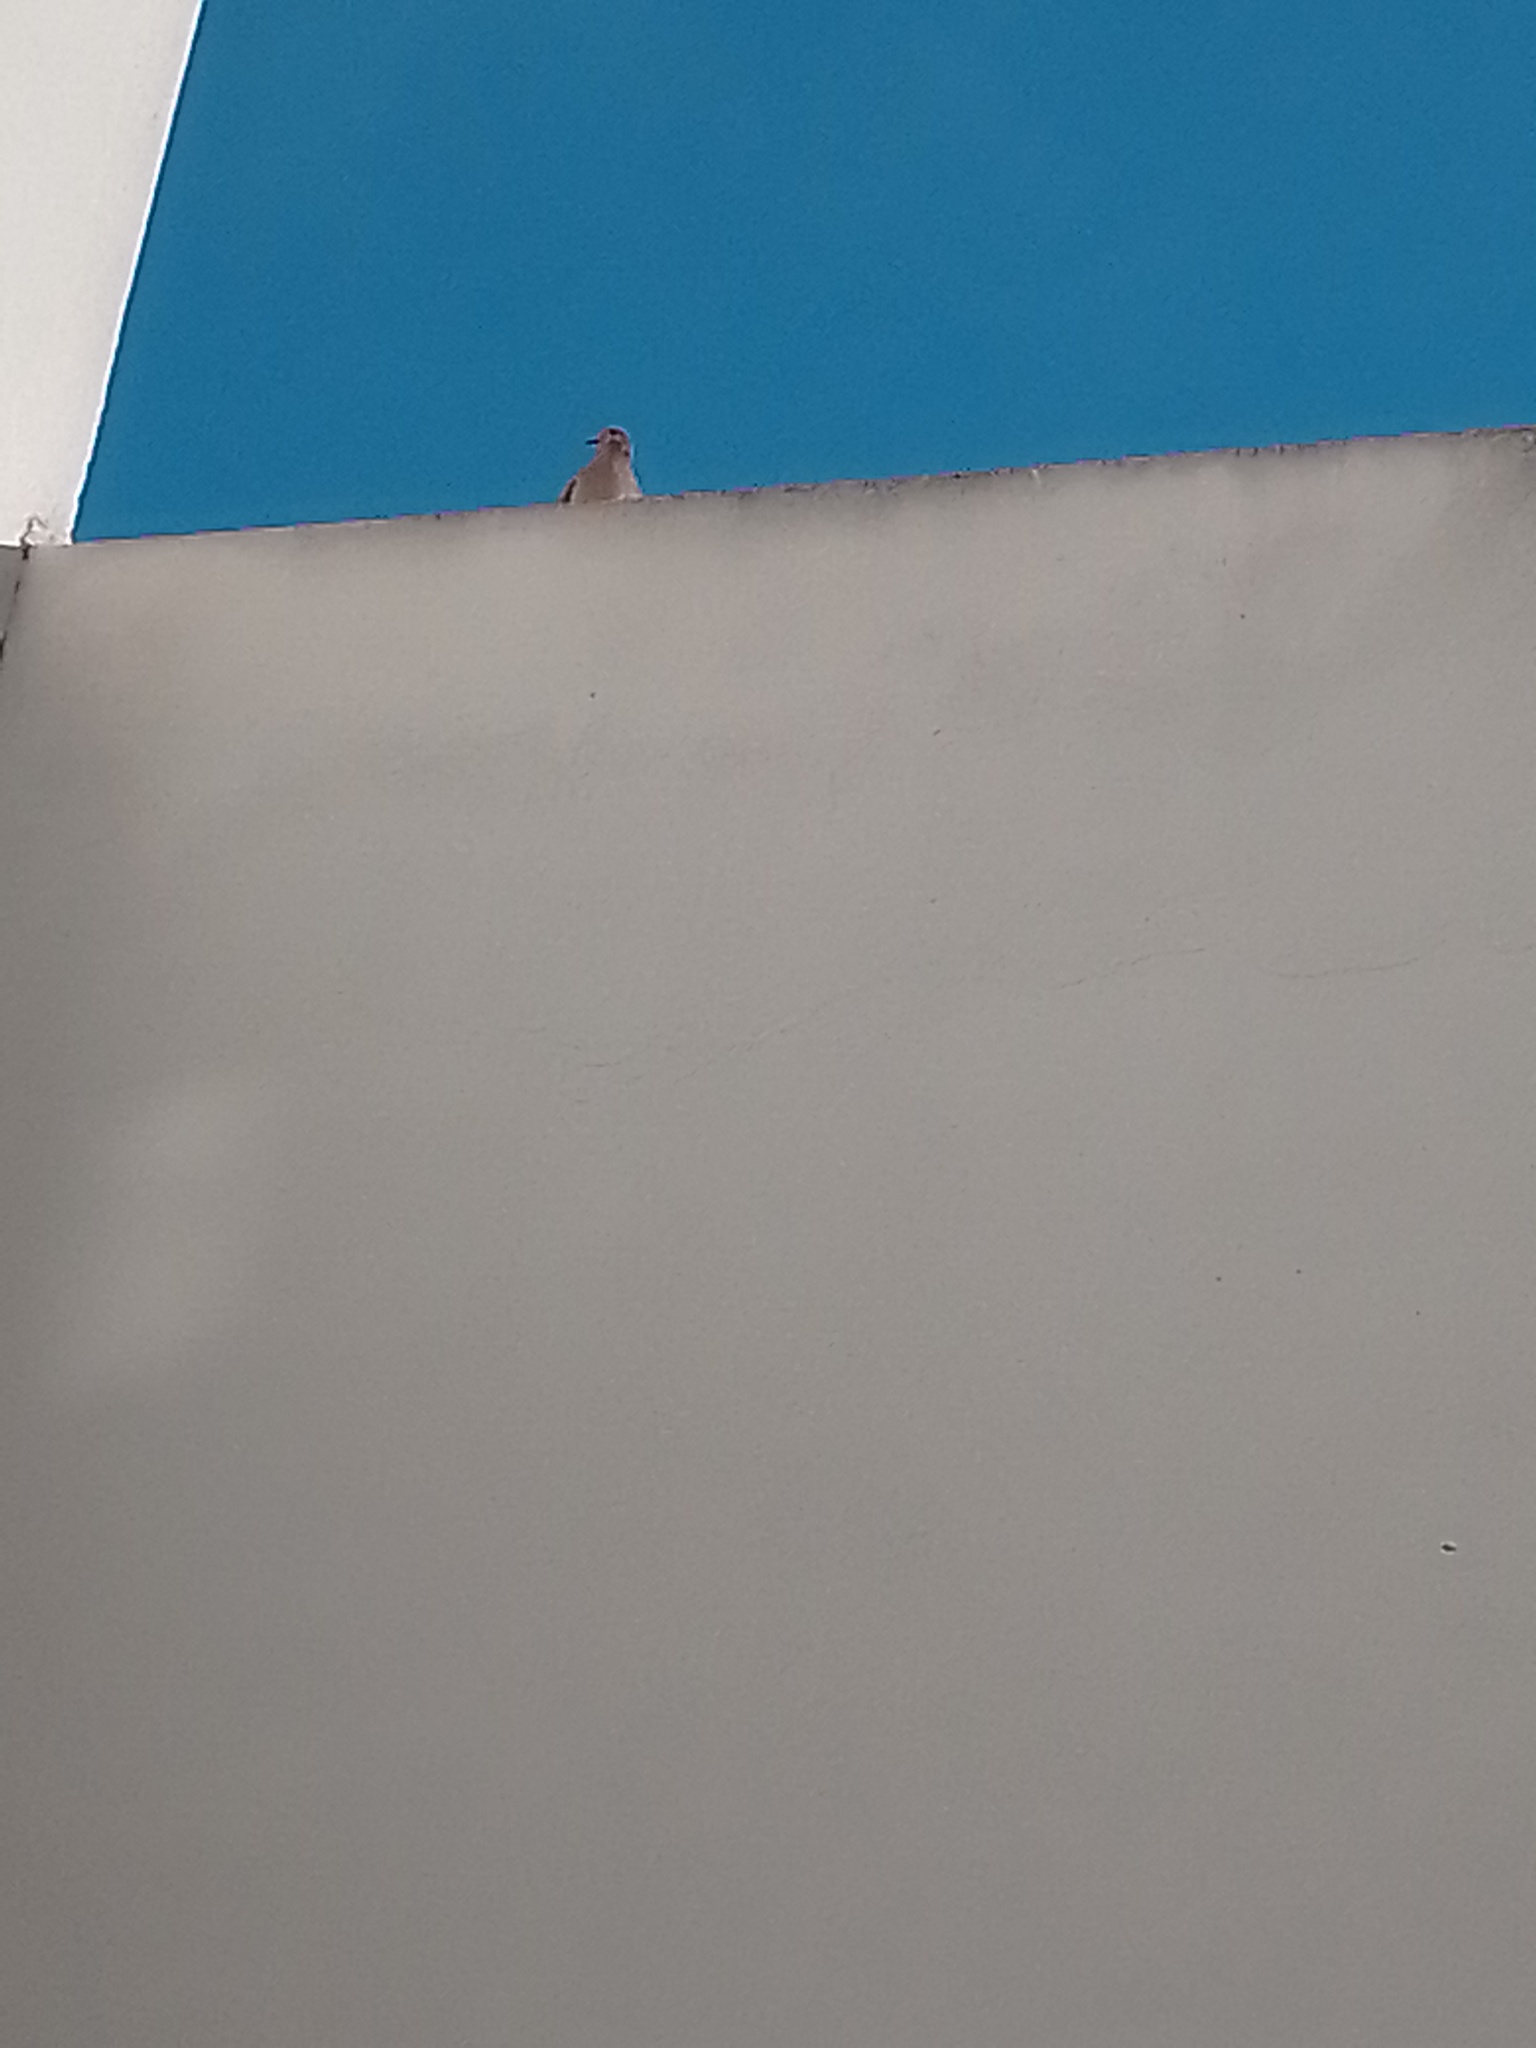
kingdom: Animalia
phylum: Chordata
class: Aves
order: Columbiformes
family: Columbidae
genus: Zenaida
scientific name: Zenaida auriculata
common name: Eared dove
